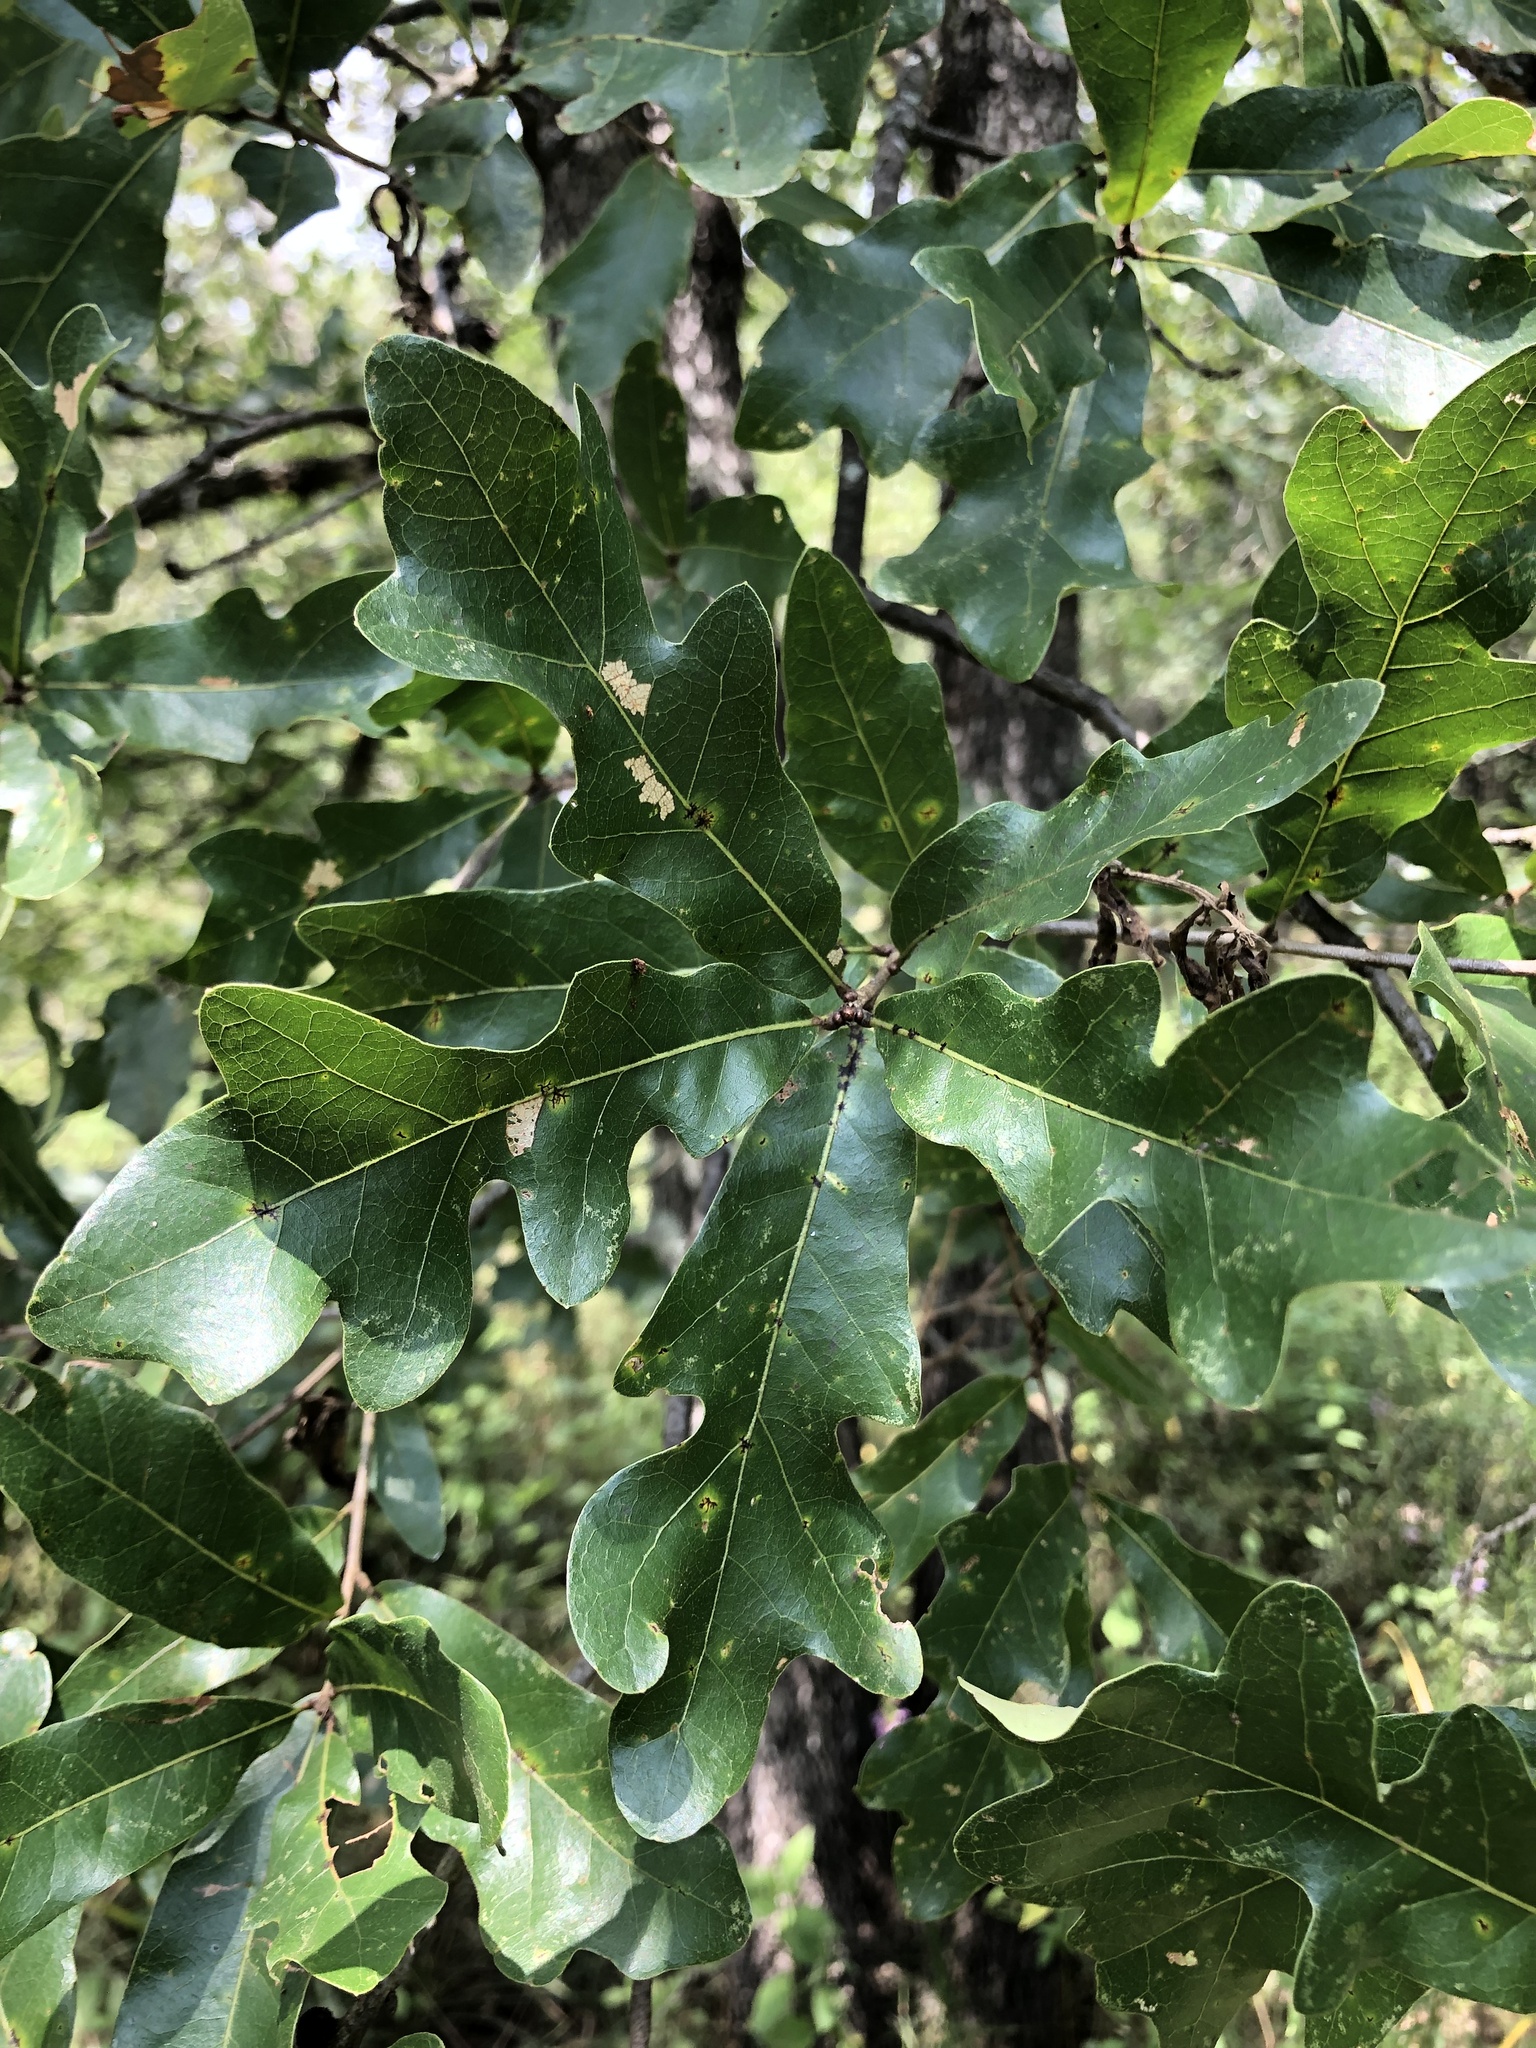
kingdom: Plantae
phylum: Tracheophyta
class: Magnoliopsida
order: Fagales
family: Fagaceae
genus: Quercus
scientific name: Quercus similis
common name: Delta post oak
